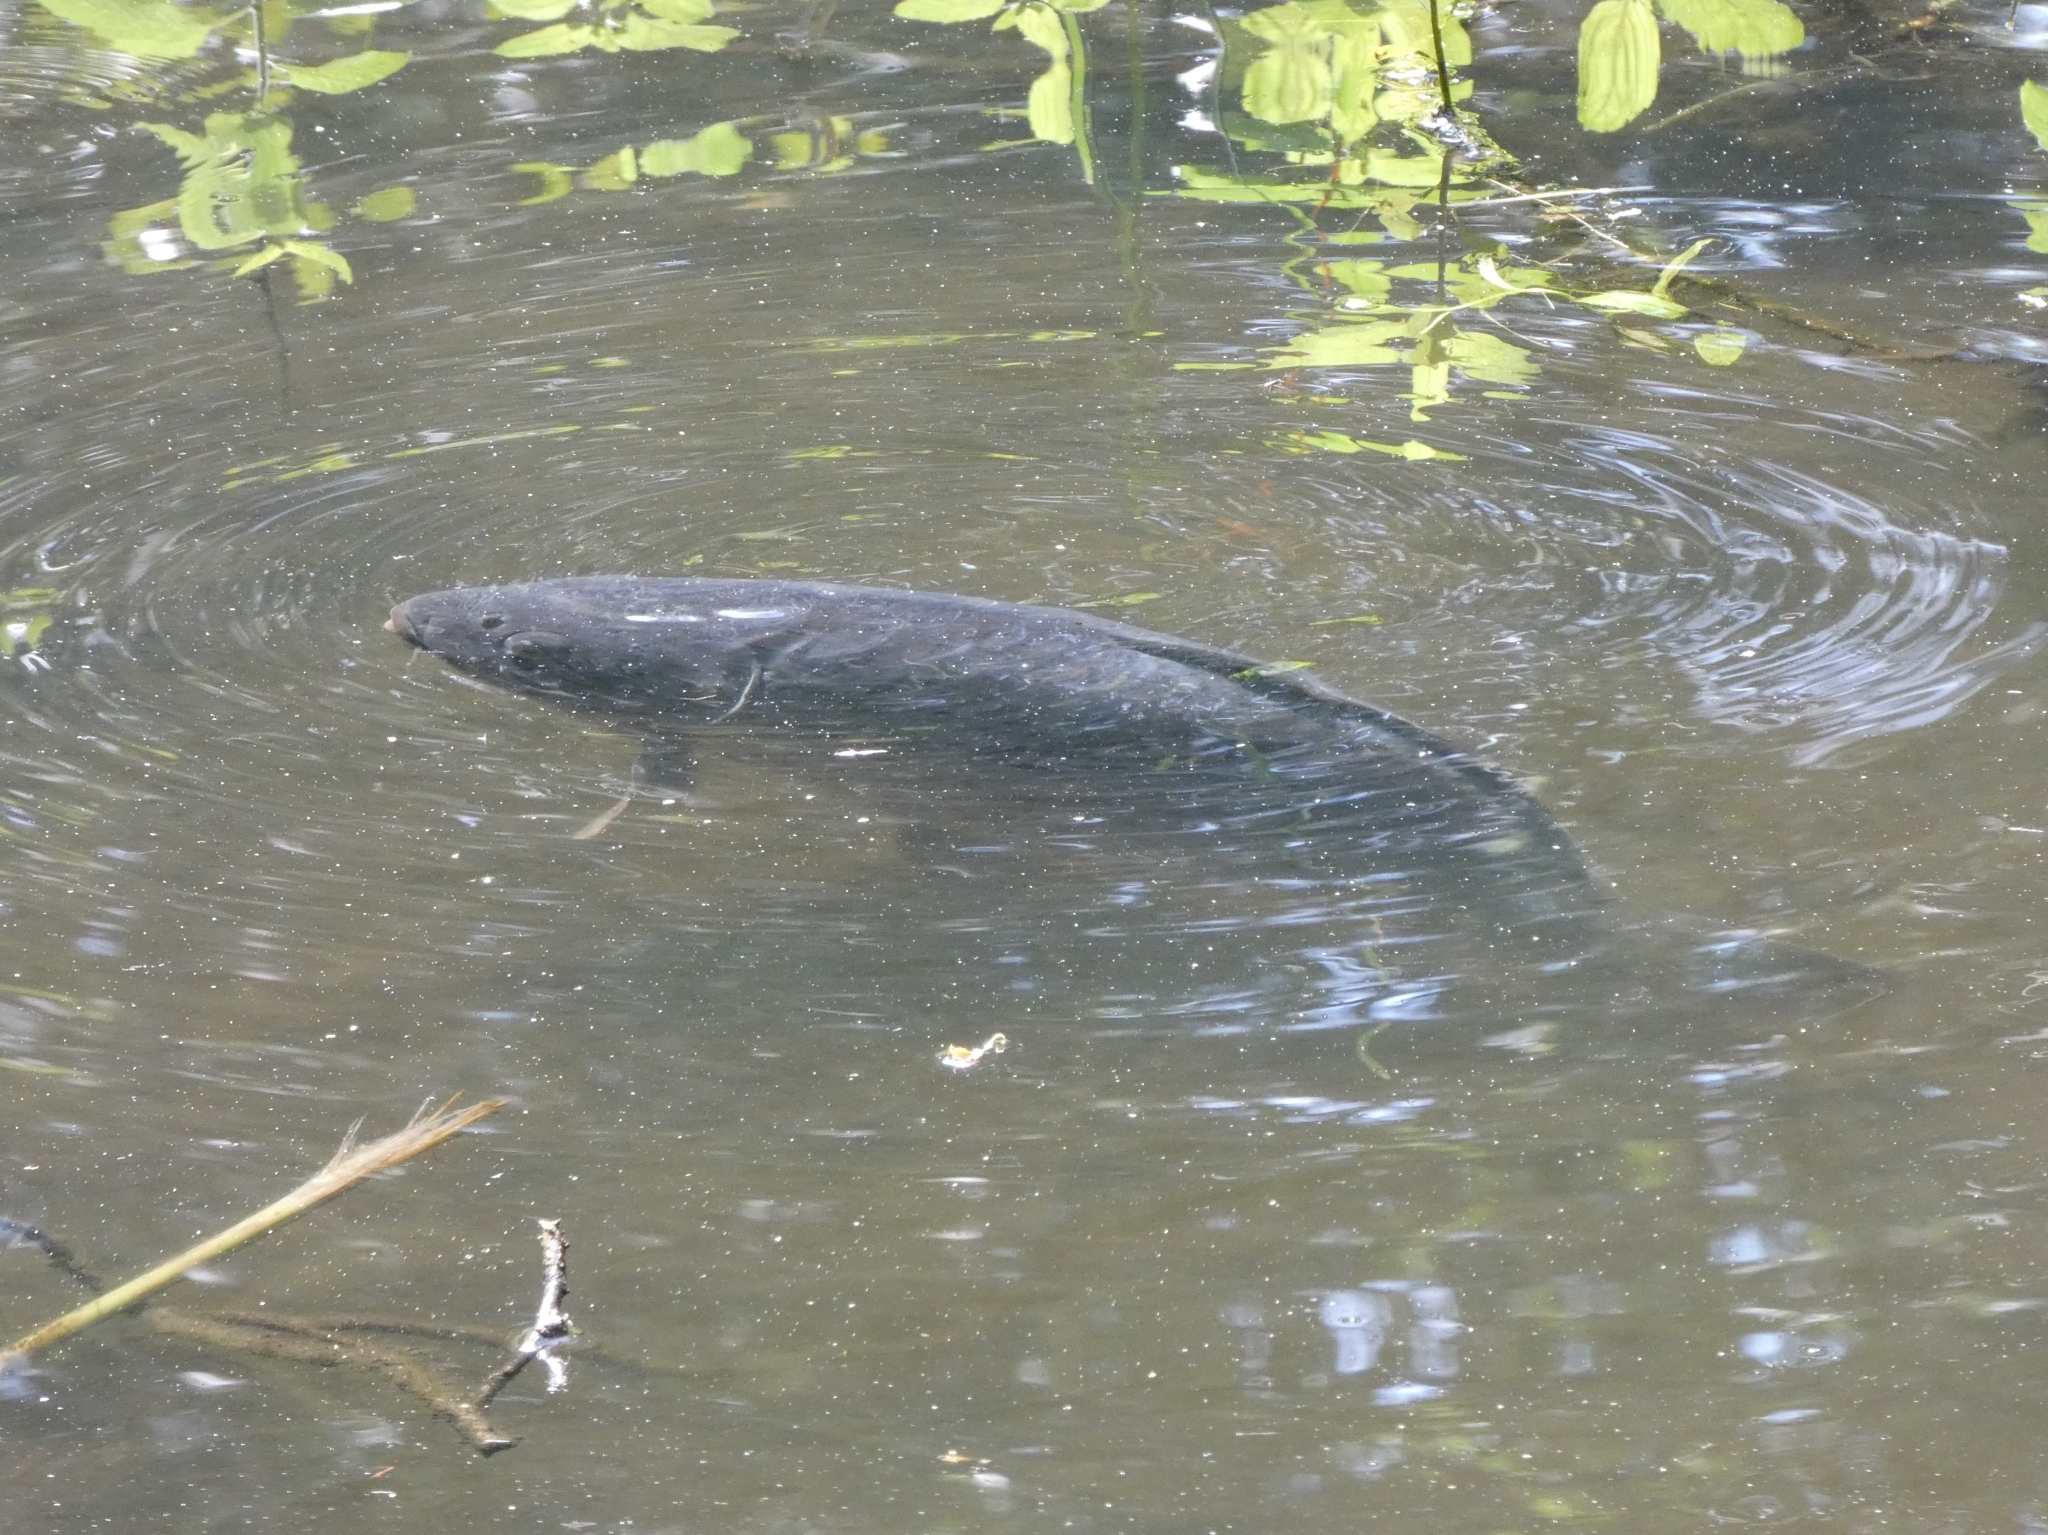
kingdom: Animalia
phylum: Chordata
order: Cypriniformes
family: Cyprinidae
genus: Cyprinus
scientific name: Cyprinus carpio
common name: Common carp
